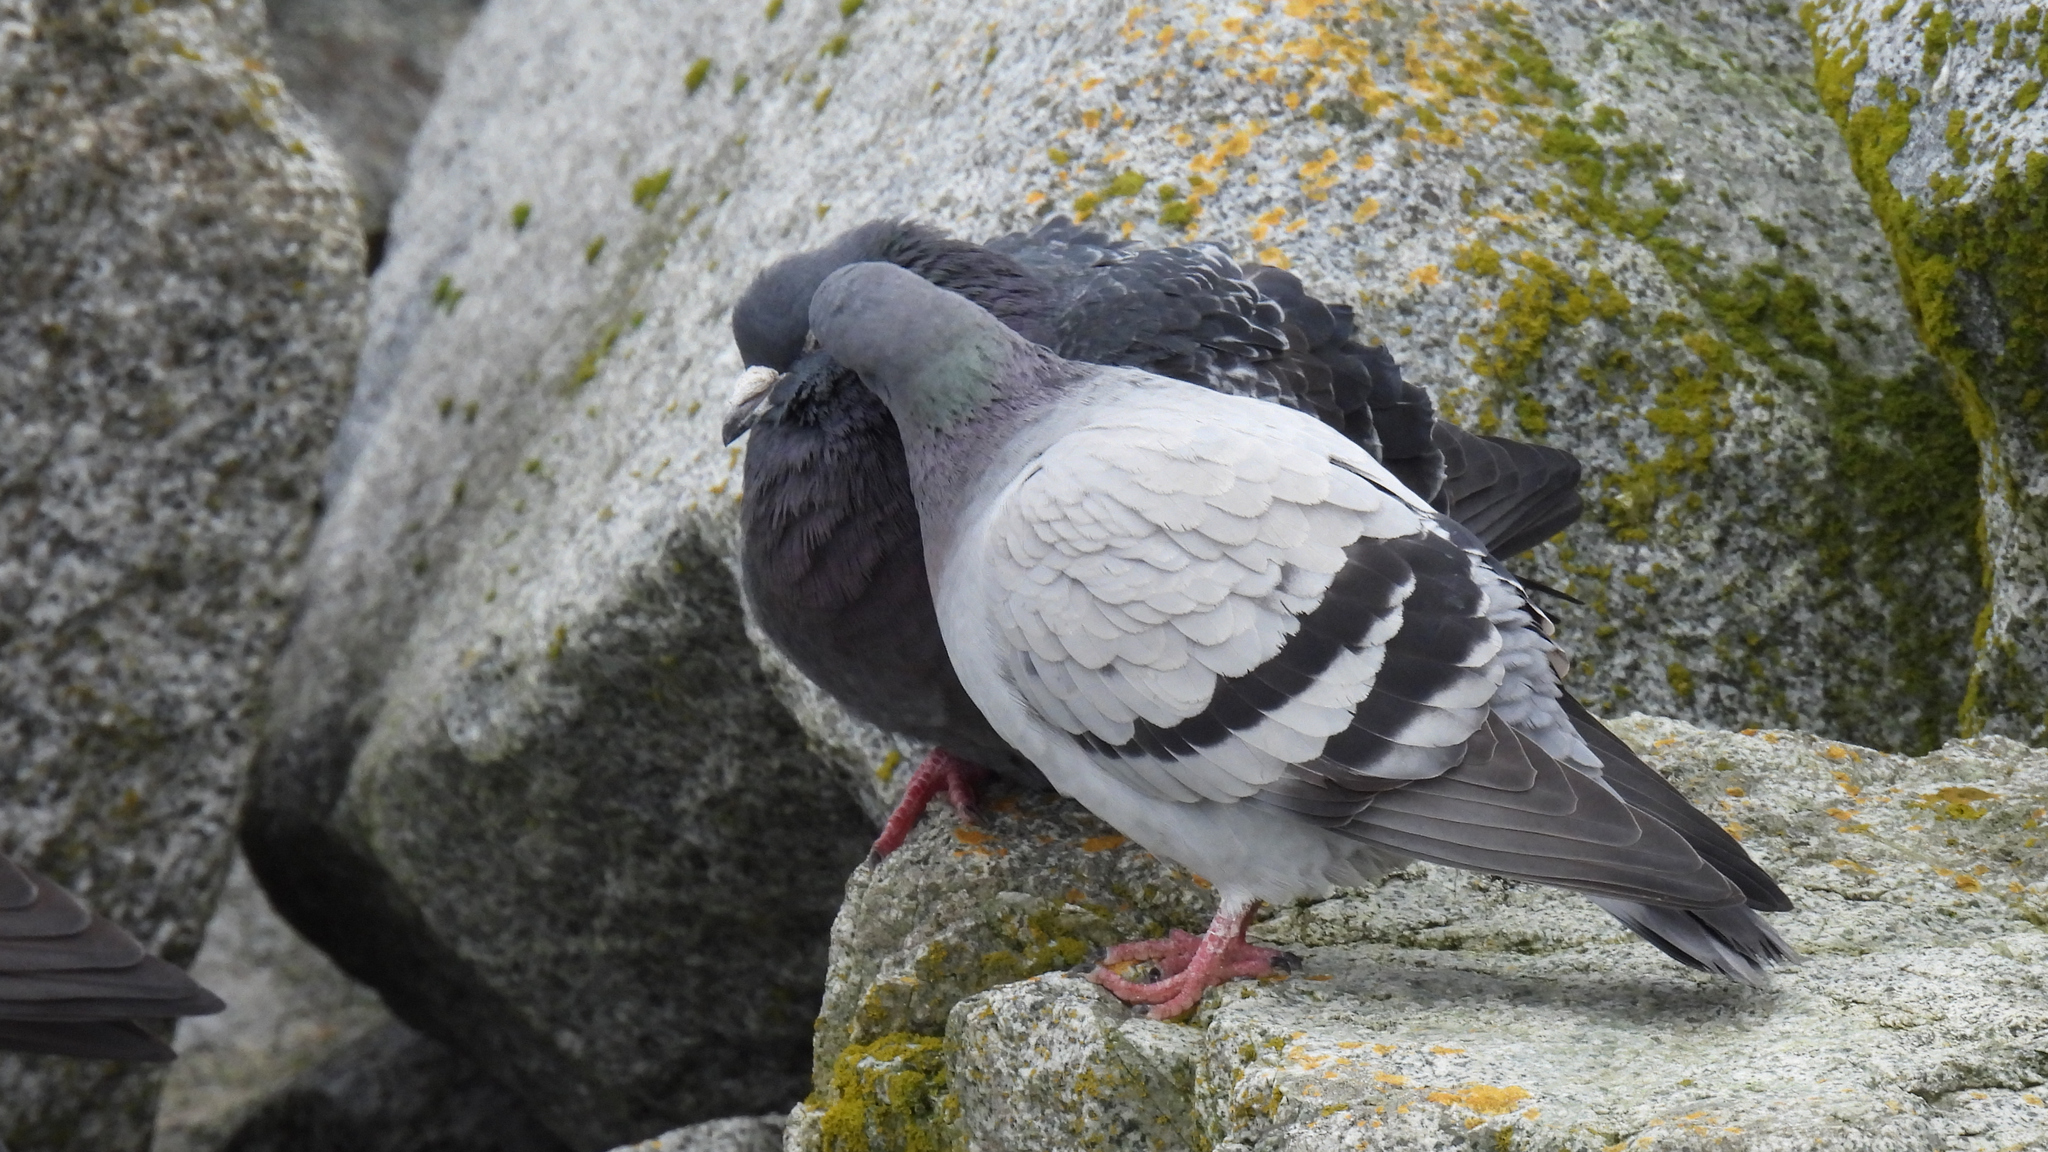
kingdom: Animalia
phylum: Chordata
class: Aves
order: Columbiformes
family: Columbidae
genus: Columba
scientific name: Columba livia
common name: Rock pigeon
